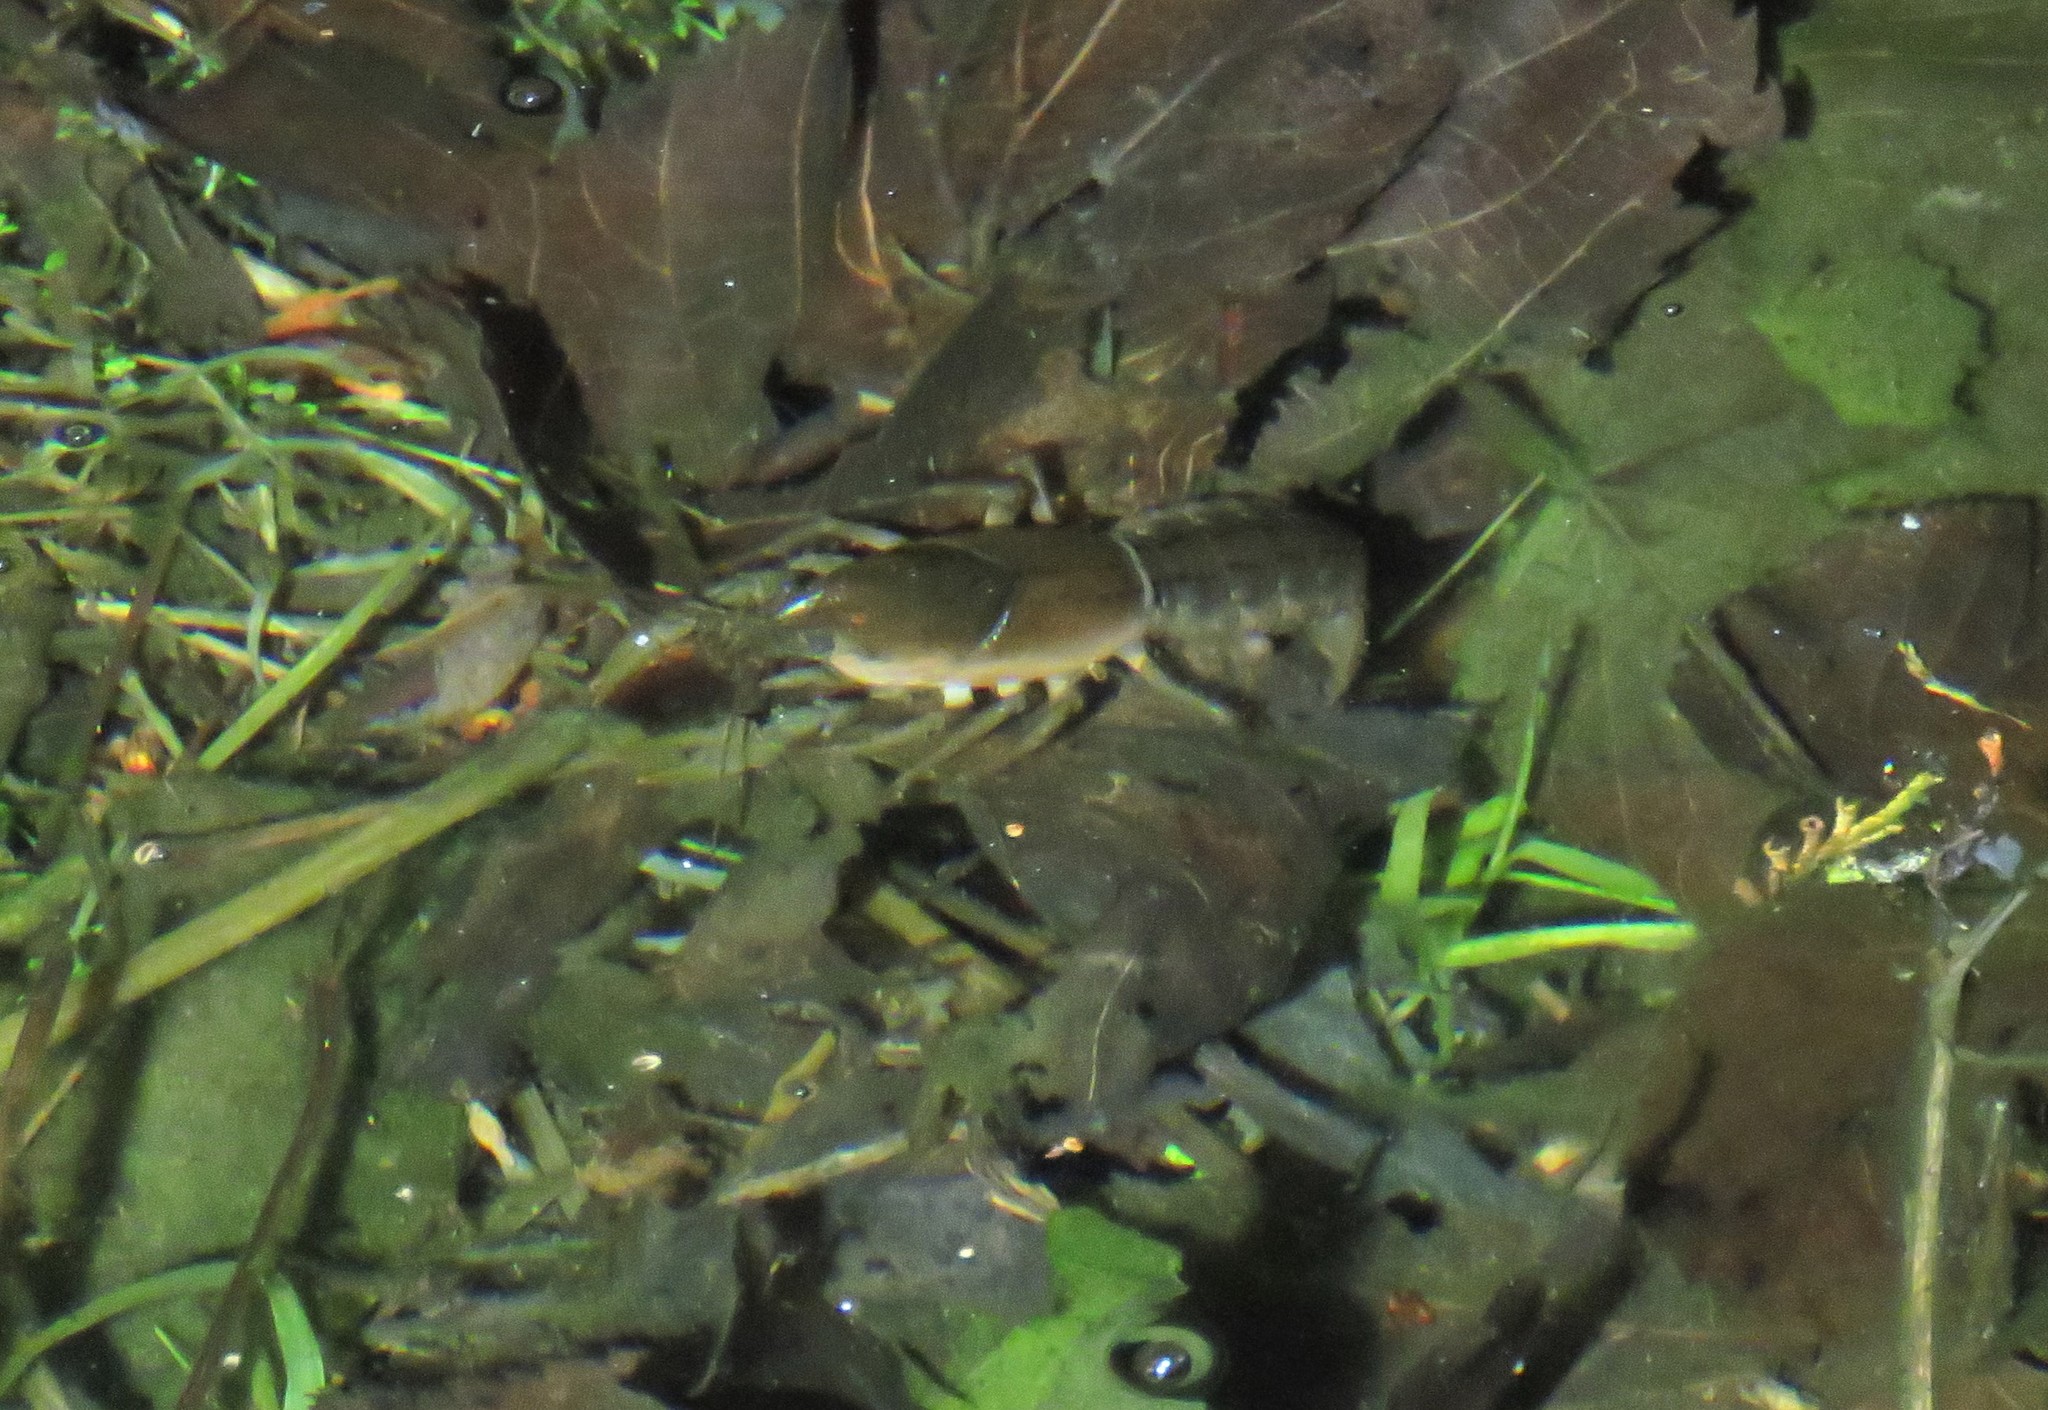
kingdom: Animalia
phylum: Arthropoda
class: Malacostraca
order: Decapoda
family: Cambaridae
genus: Creaserinus
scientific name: Creaserinus fodiens
